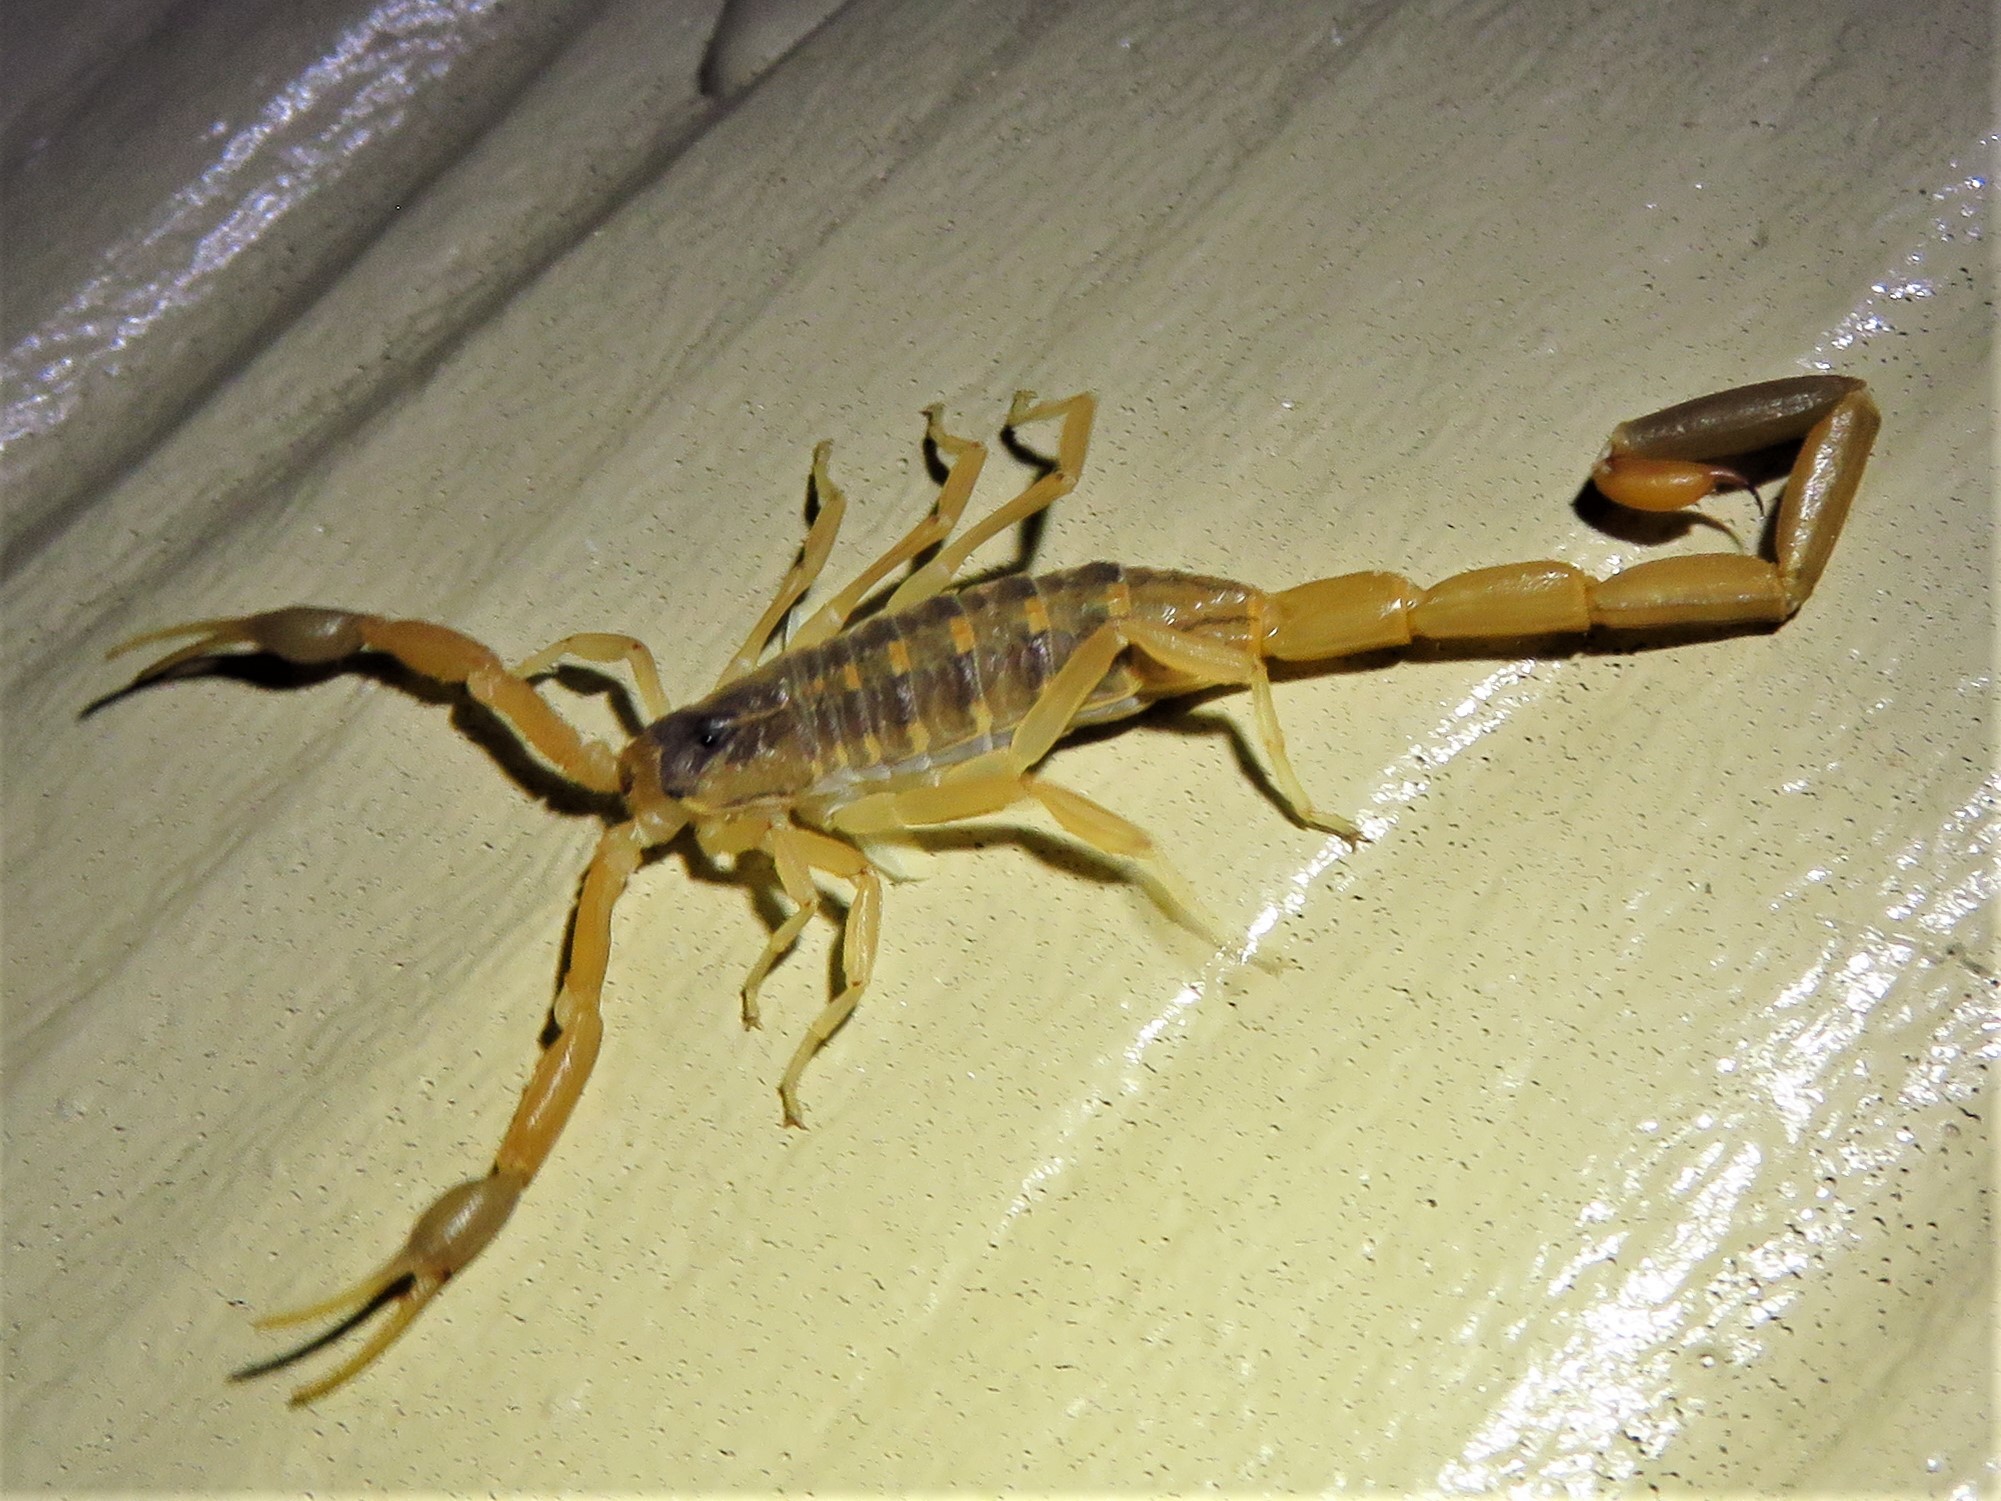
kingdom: Animalia
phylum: Arthropoda
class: Arachnida
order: Scorpiones
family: Buthidae
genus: Centruroides
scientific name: Centruroides vittatus
